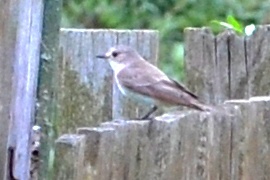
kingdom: Animalia
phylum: Chordata
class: Aves
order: Passeriformes
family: Muscicapidae
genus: Muscicapa
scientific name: Muscicapa striata
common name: Spotted flycatcher
